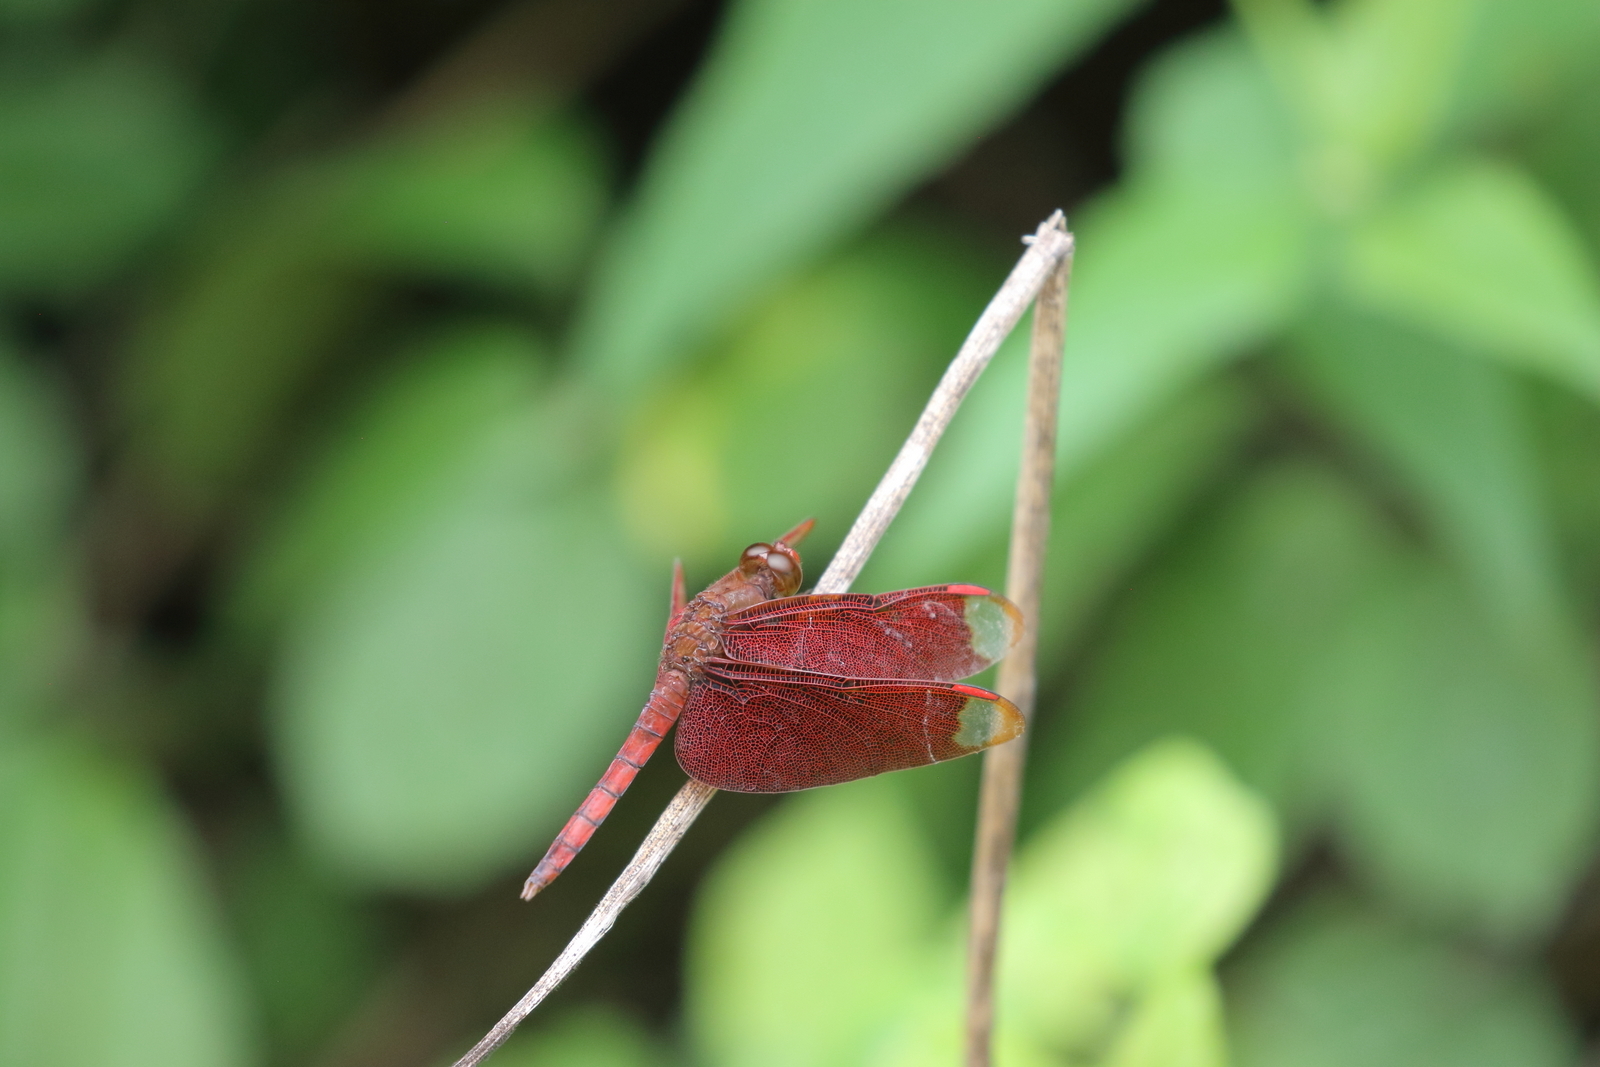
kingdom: Animalia
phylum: Arthropoda
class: Insecta
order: Odonata
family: Libellulidae
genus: Neurothemis
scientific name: Neurothemis fulvia
